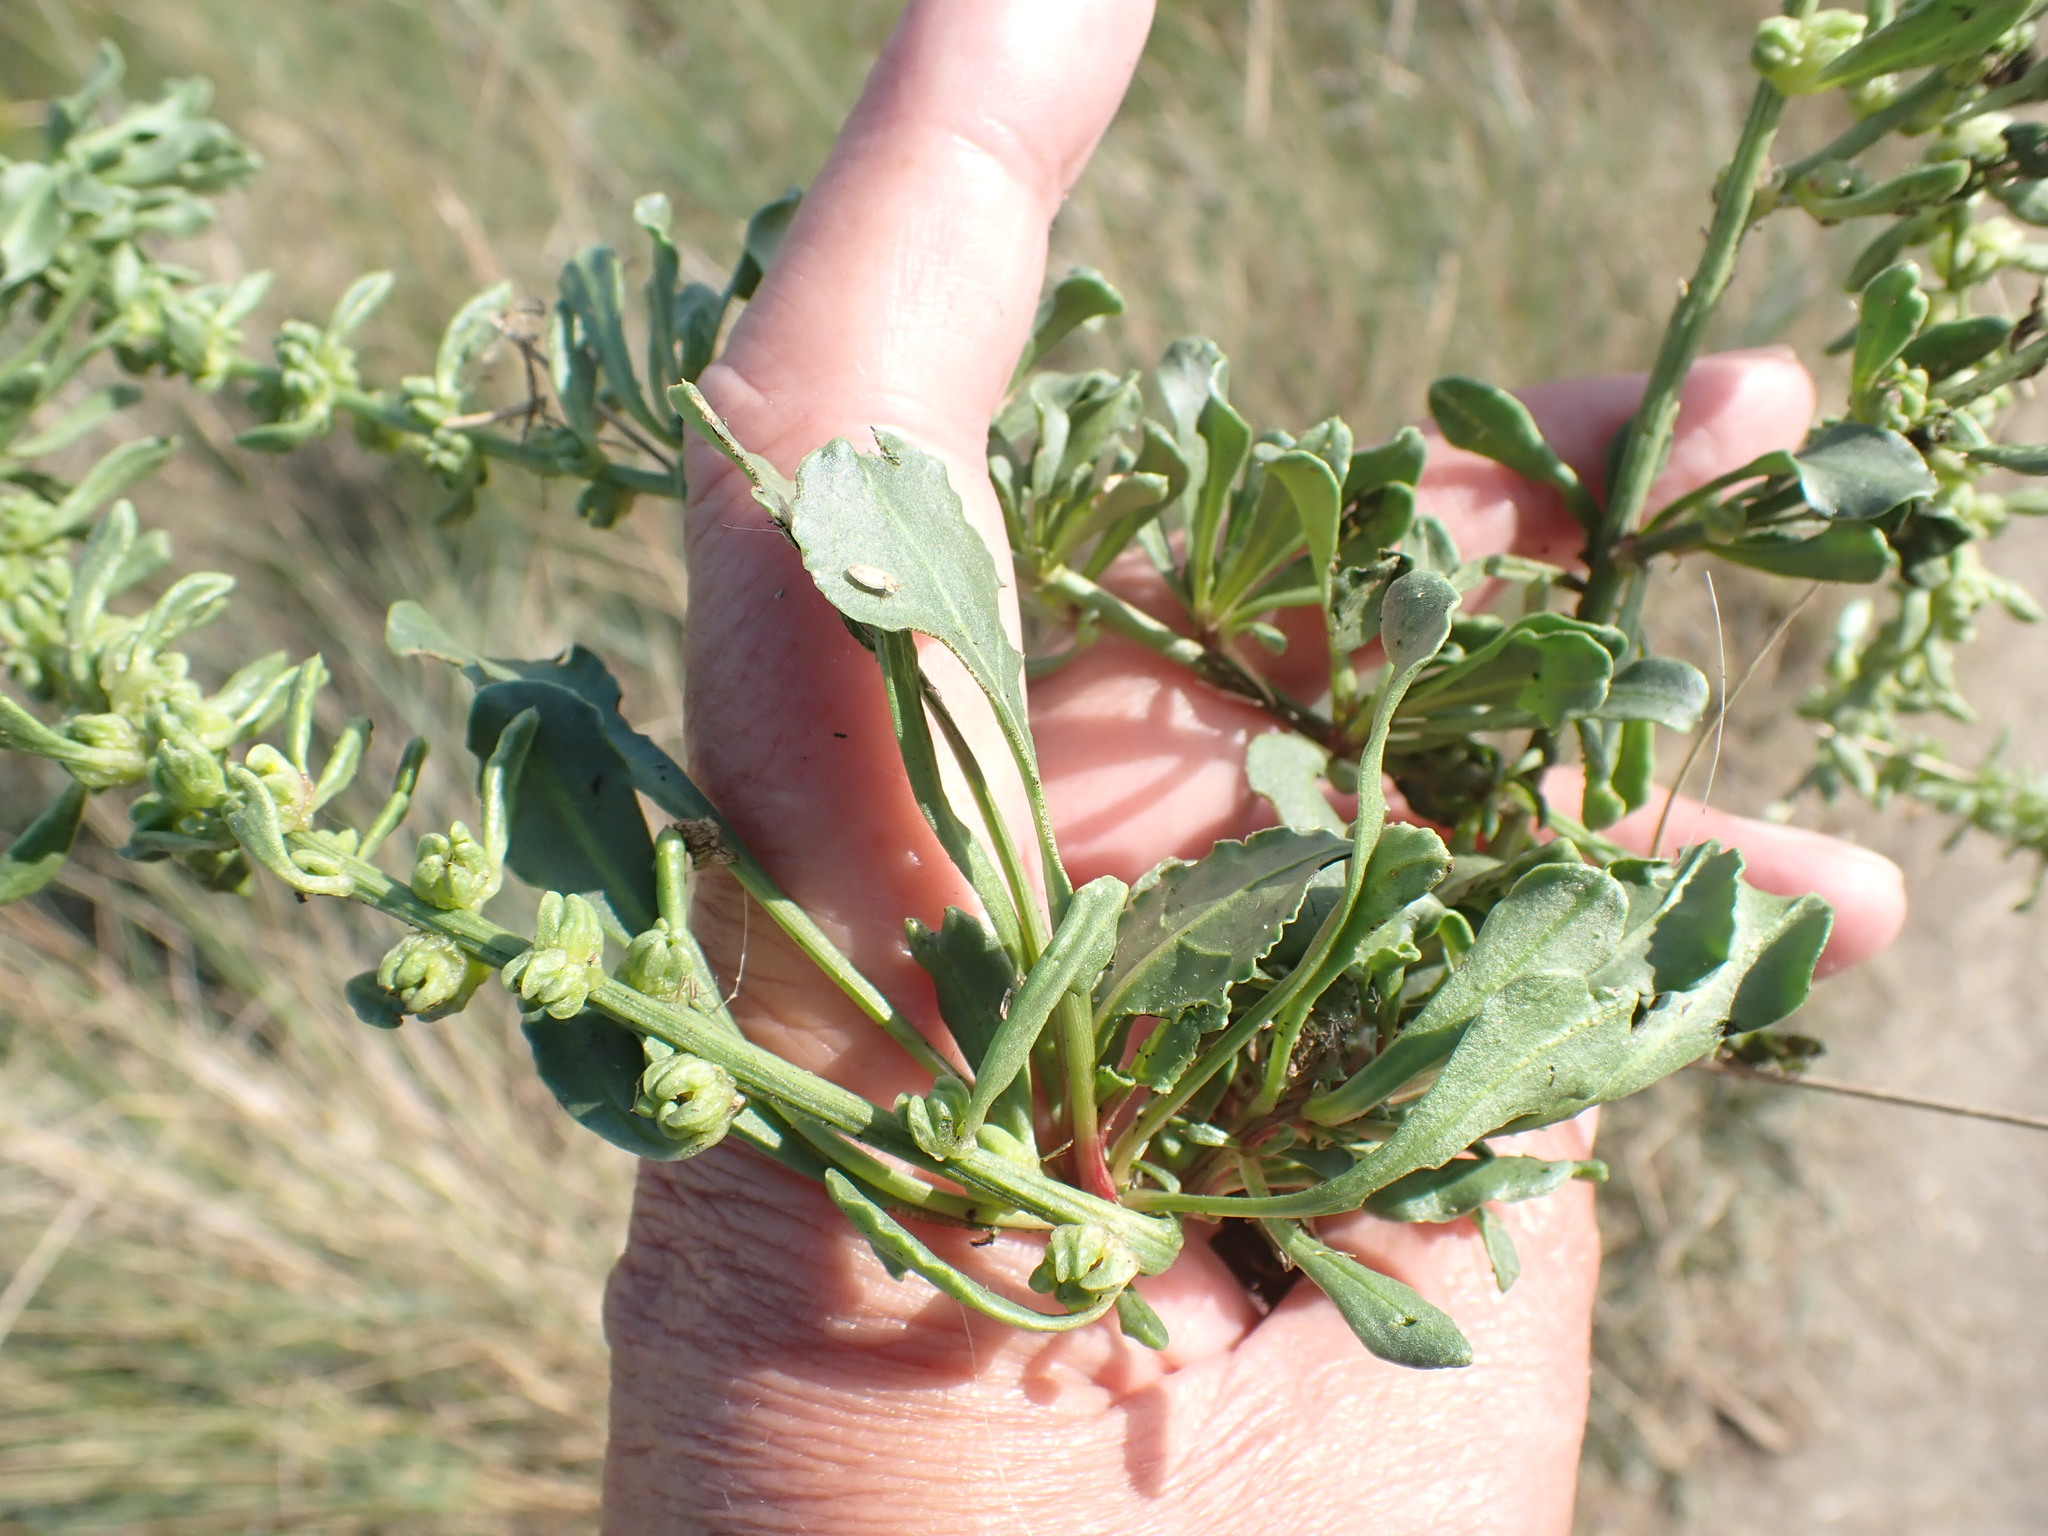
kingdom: Plantae
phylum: Tracheophyta
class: Magnoliopsida
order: Caryophyllales
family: Amaranthaceae
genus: Beta
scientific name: Beta vulgaris
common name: Beet
